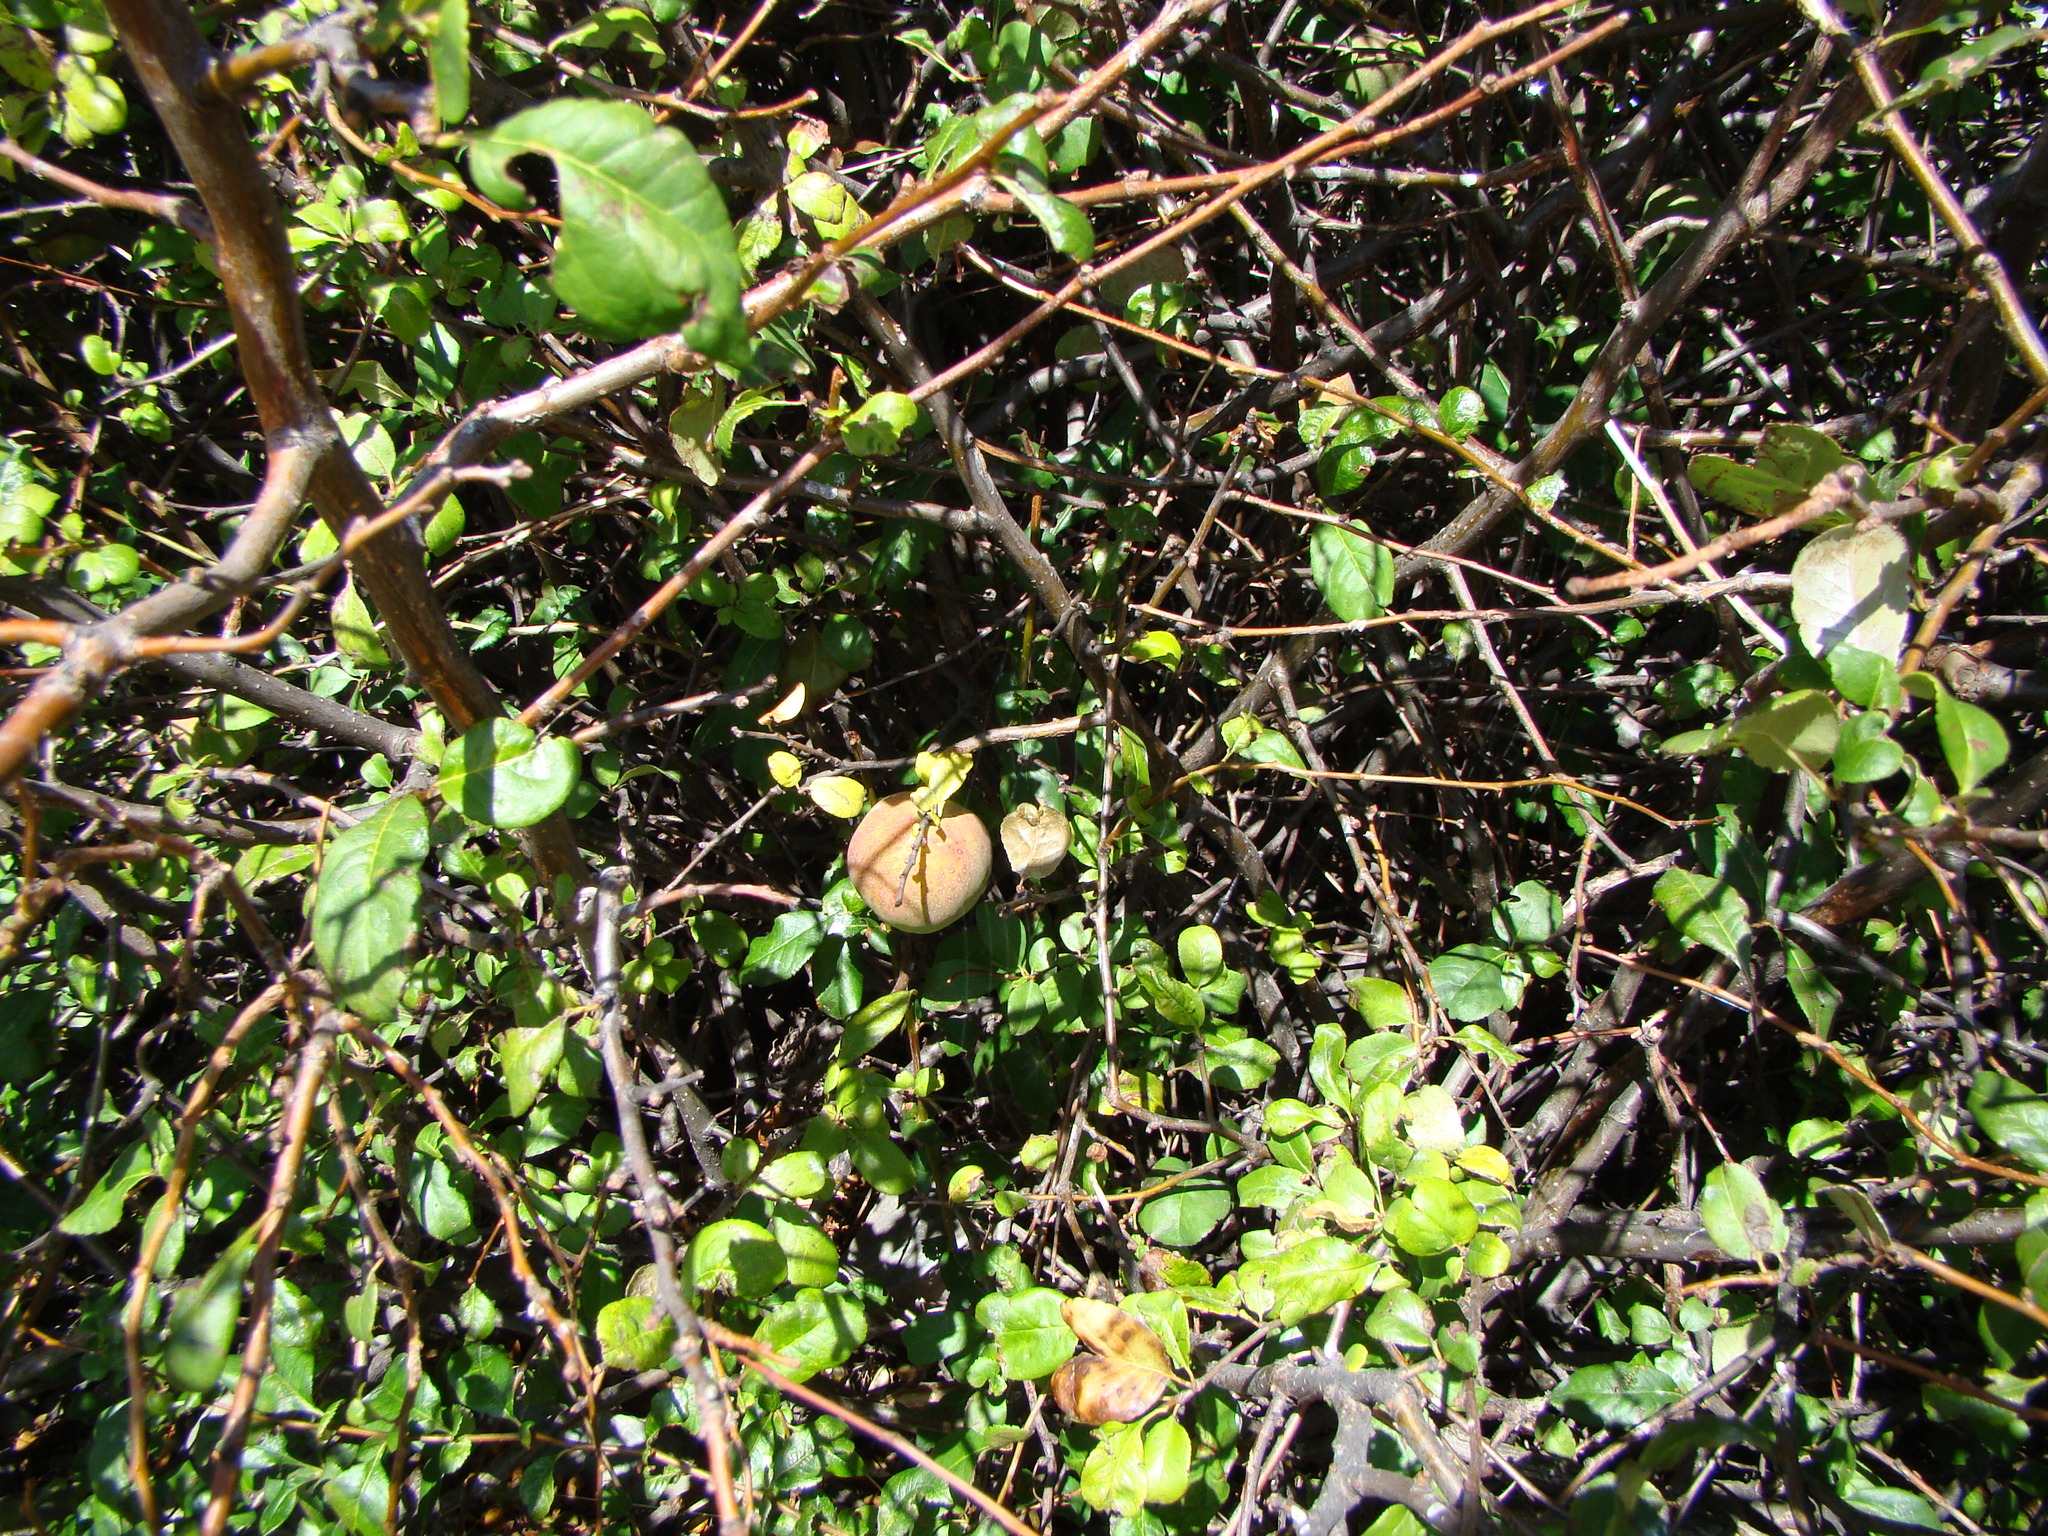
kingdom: Plantae
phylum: Tracheophyta
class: Magnoliopsida
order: Rosales
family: Rosaceae
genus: Malus
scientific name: Malus domestica
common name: Apple
